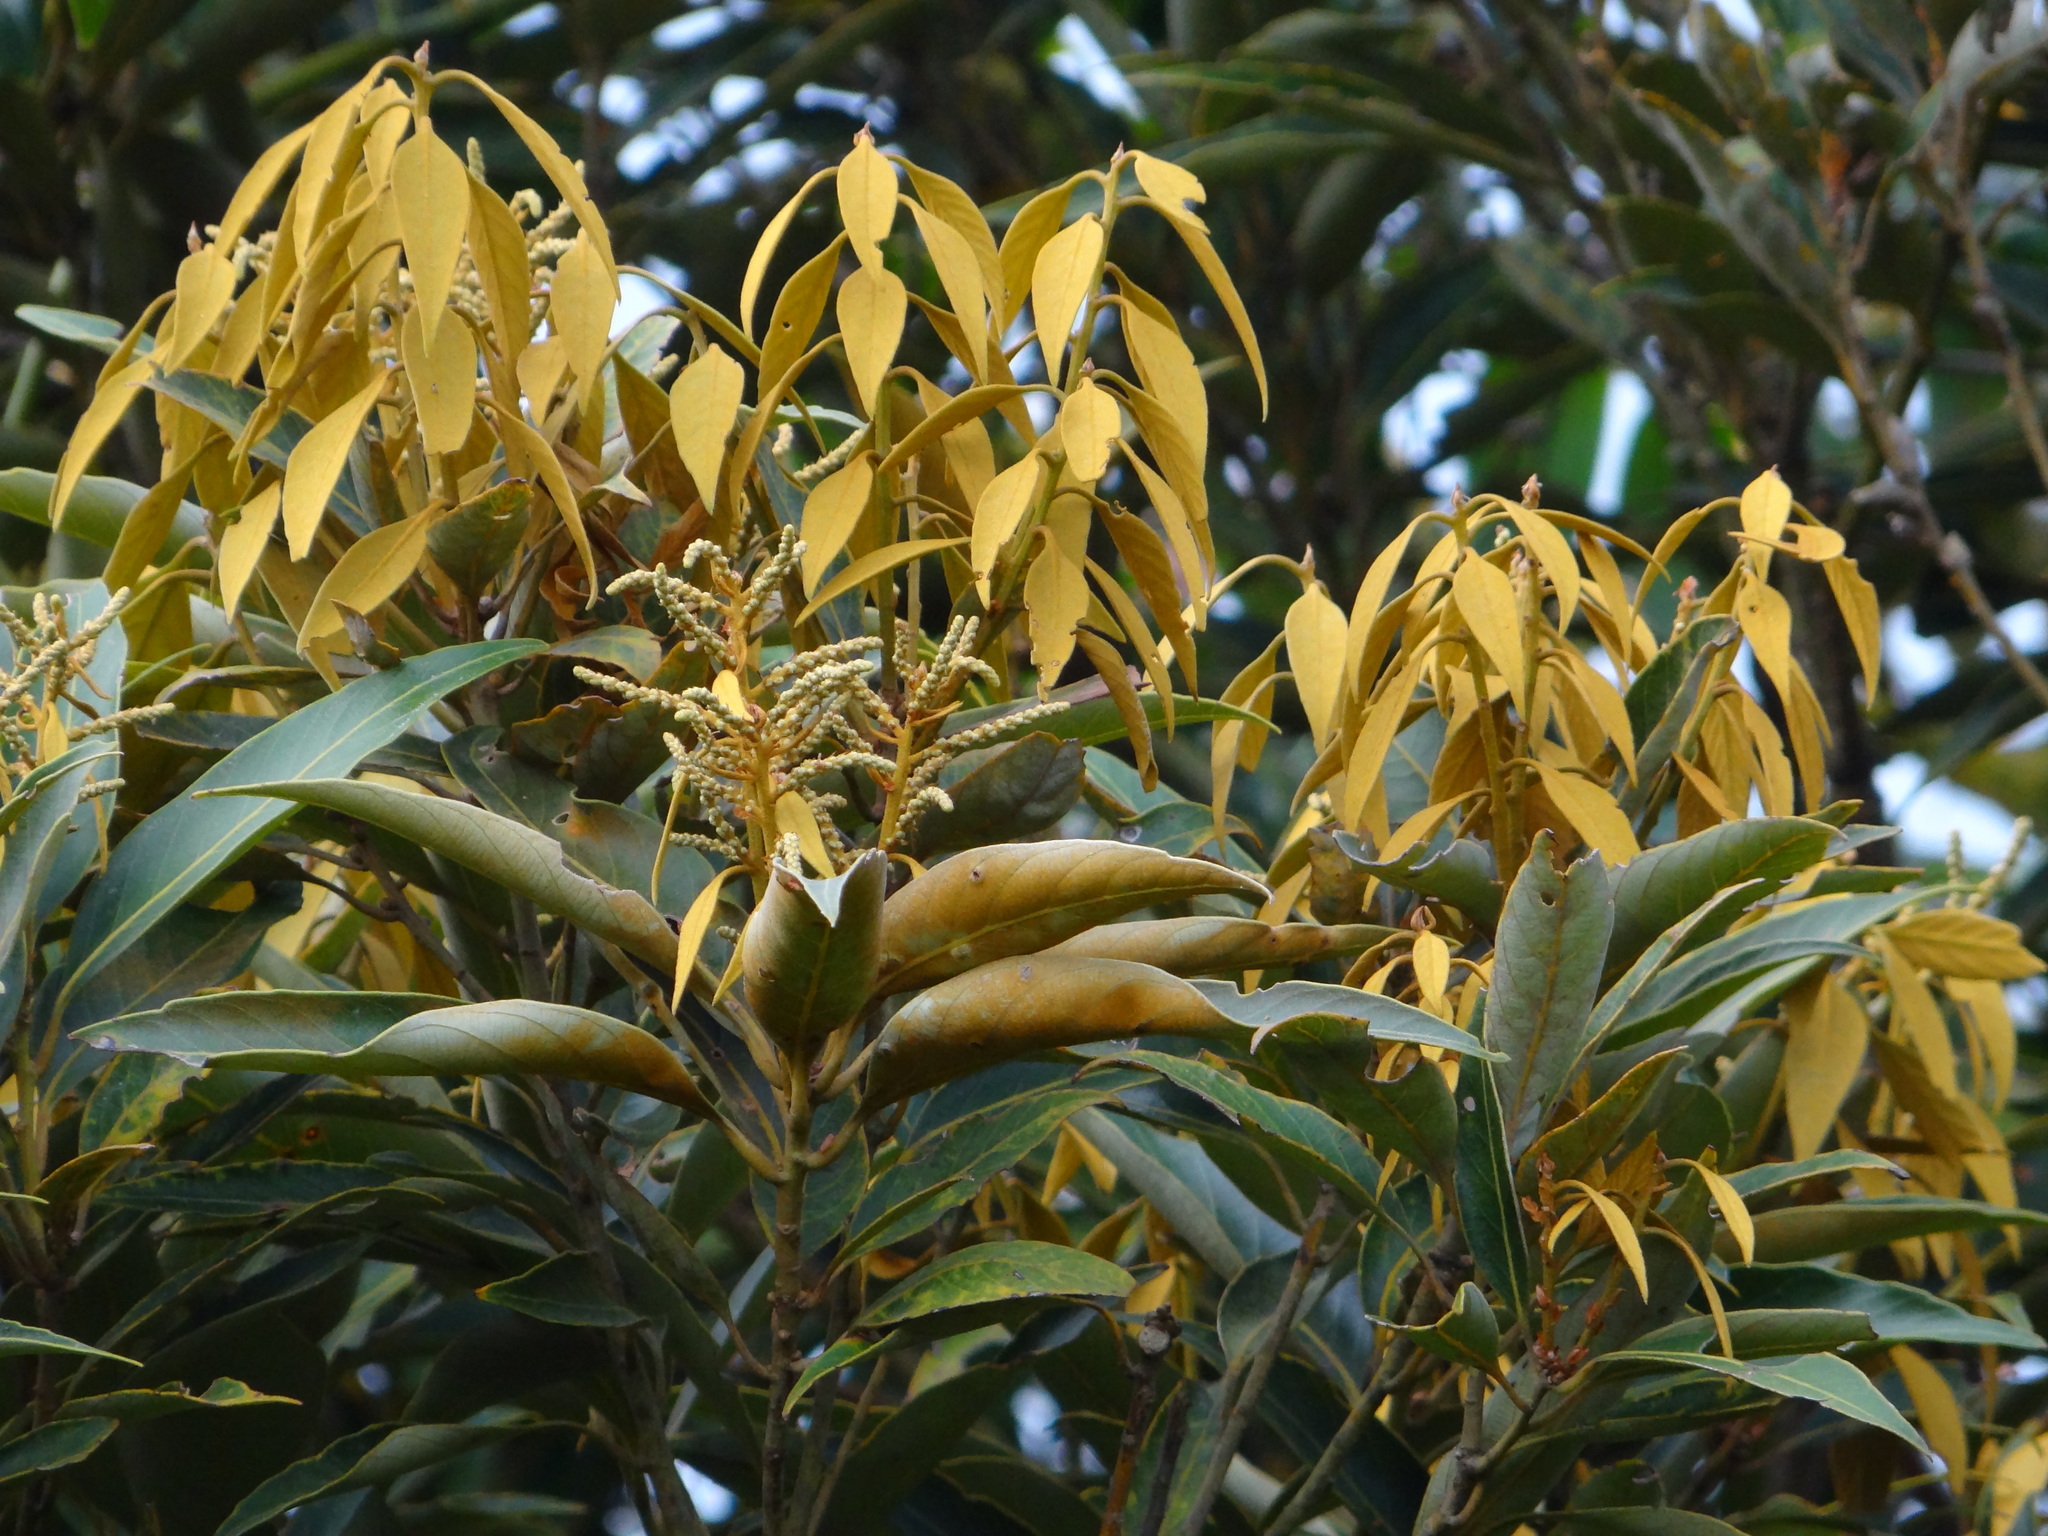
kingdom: Plantae
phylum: Tracheophyta
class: Magnoliopsida
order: Fagales
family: Fagaceae
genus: Castanopsis
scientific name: Castanopsis faberi
